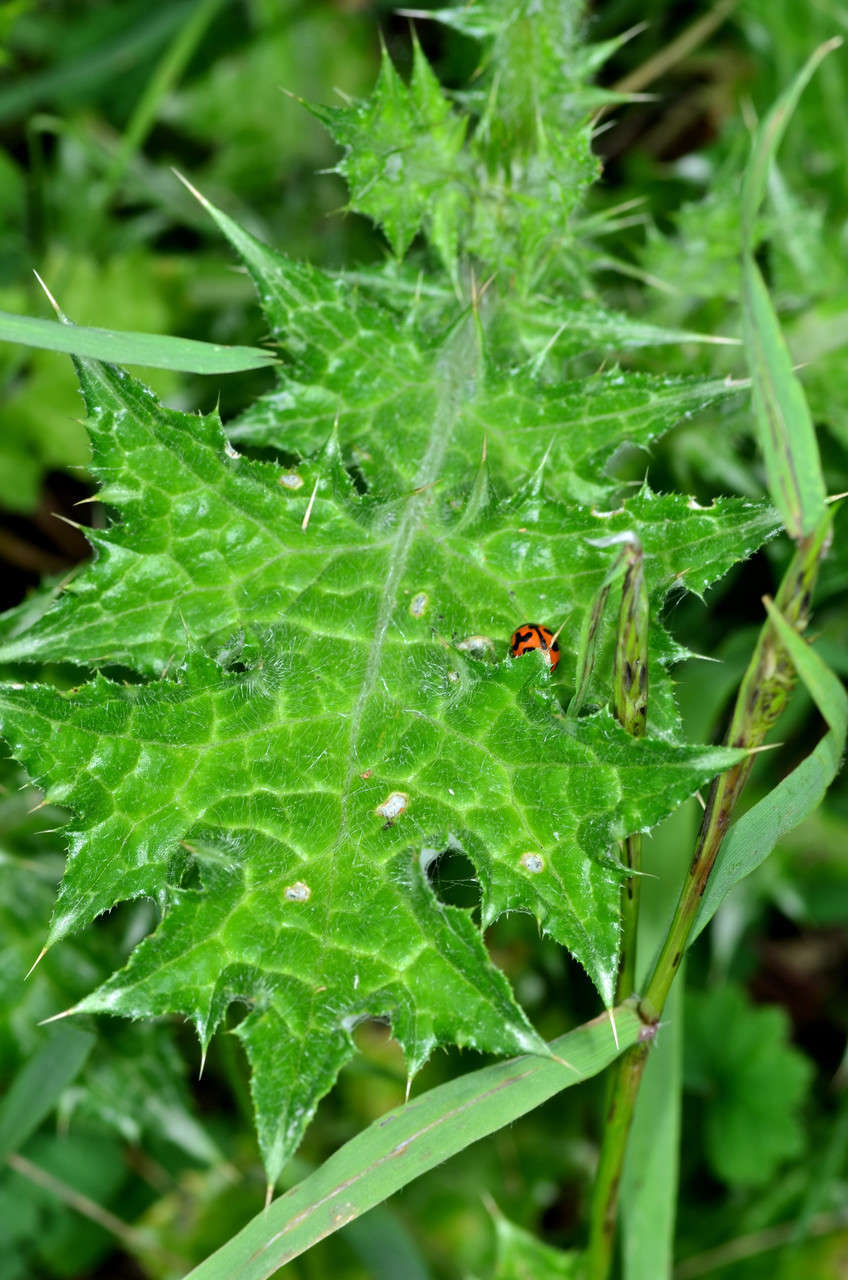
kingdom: Plantae
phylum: Tracheophyta
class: Magnoliopsida
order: Asterales
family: Asteraceae
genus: Carduus
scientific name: Carduus tenuiflorus
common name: Slender thistle
